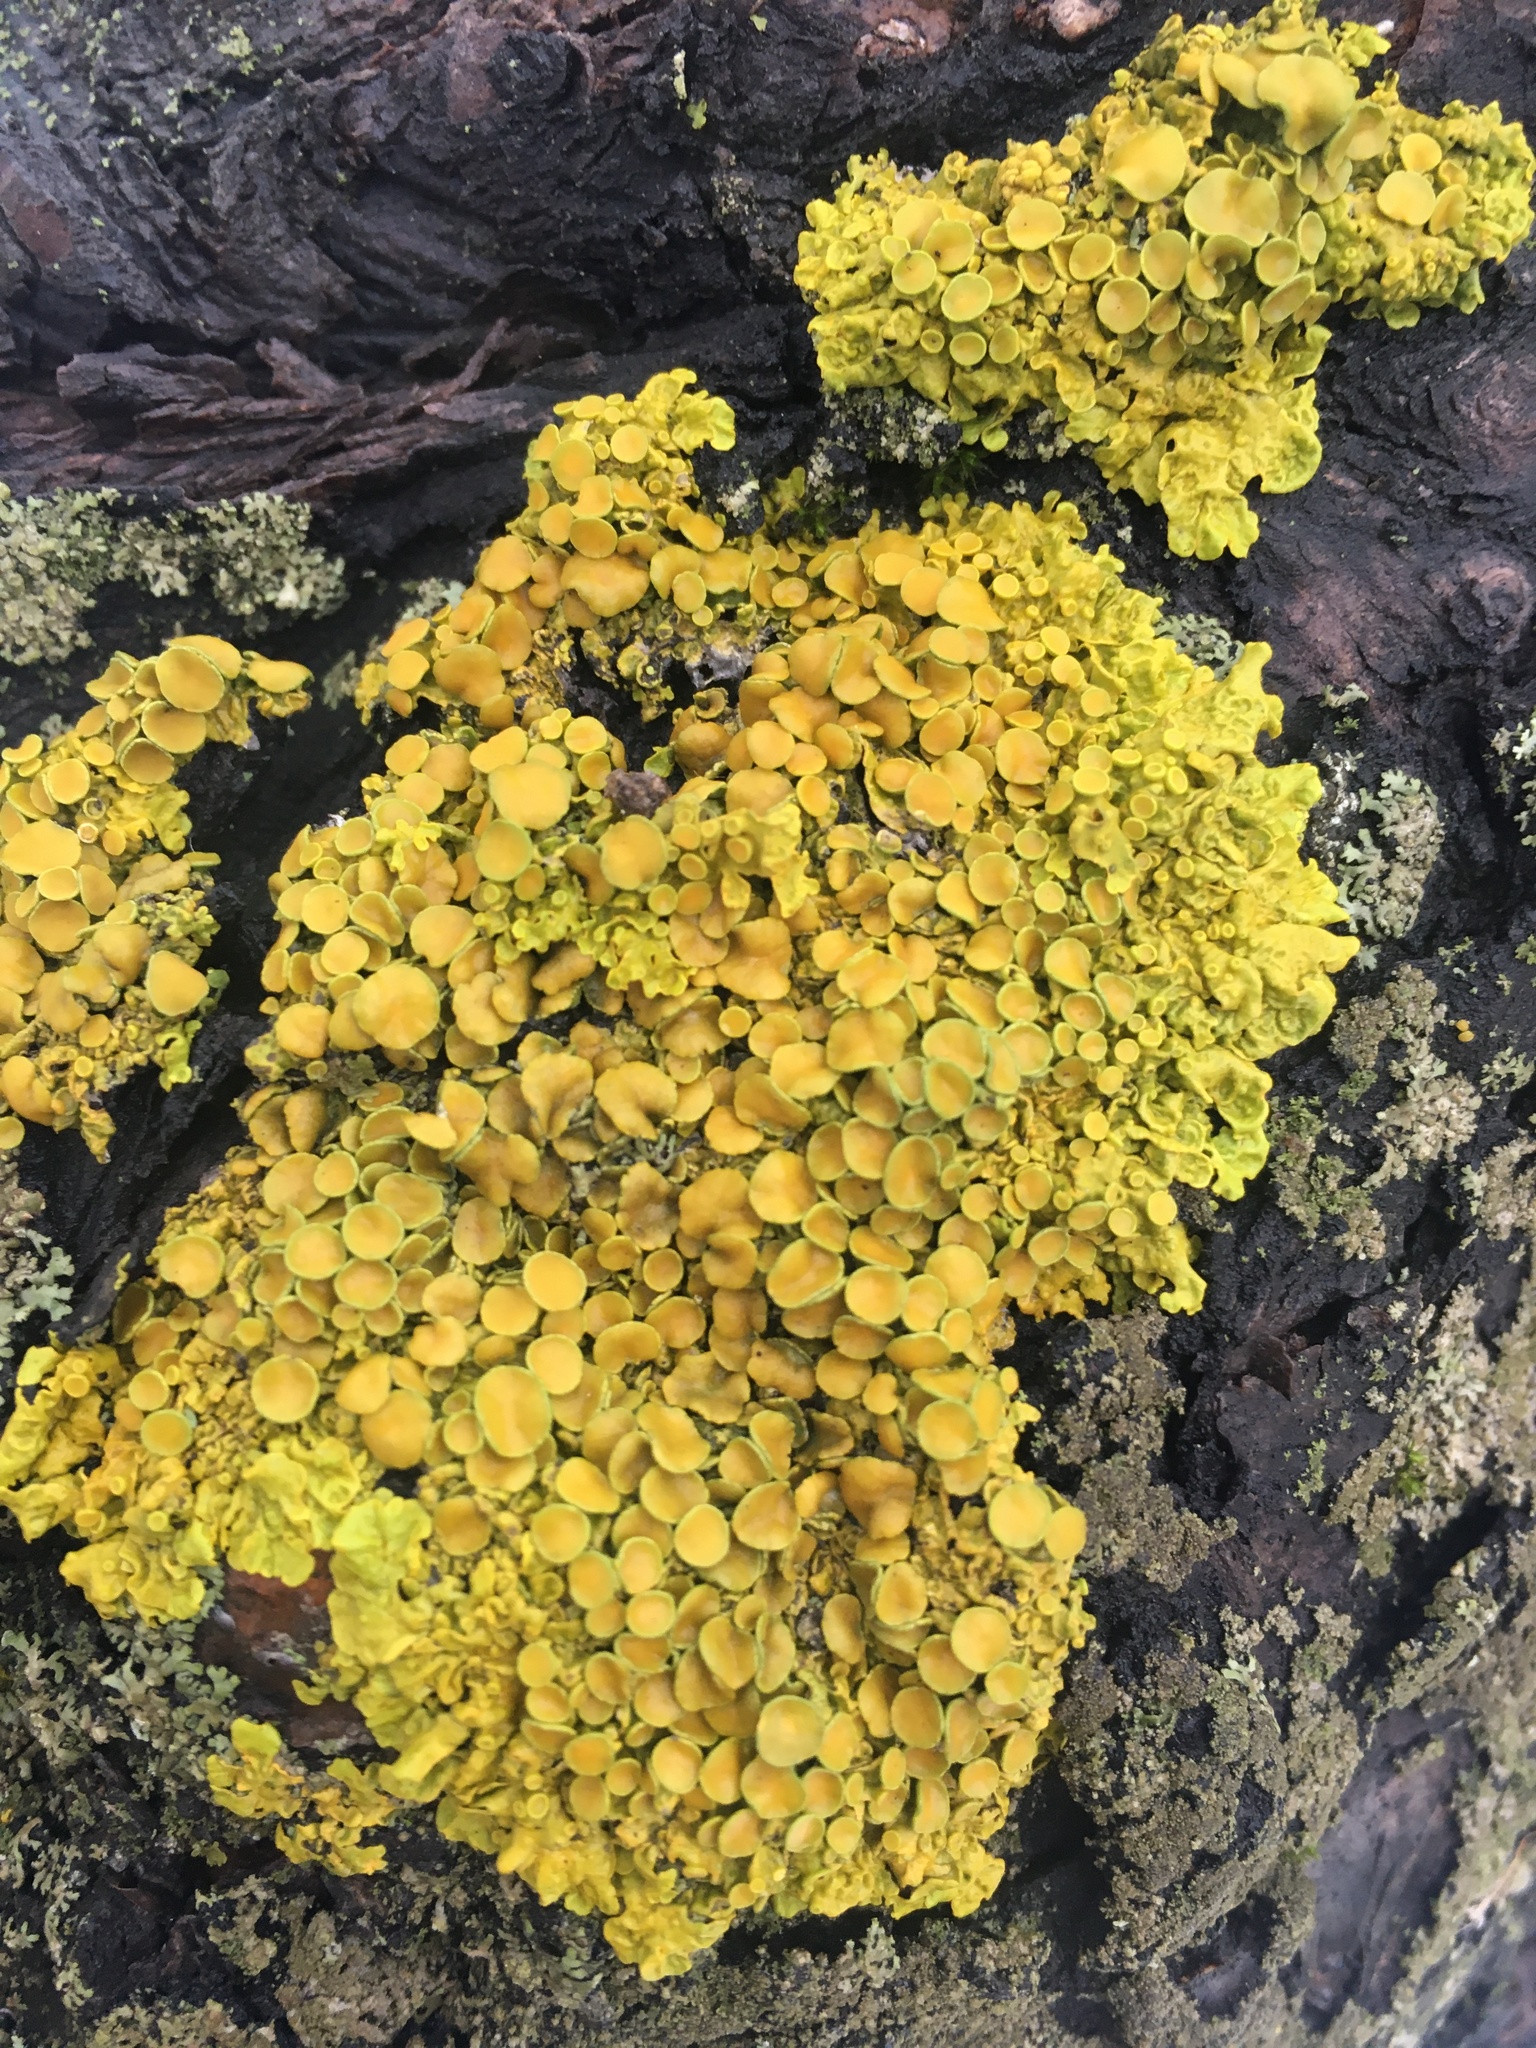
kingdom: Fungi
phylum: Ascomycota
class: Lecanoromycetes
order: Teloschistales
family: Teloschistaceae
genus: Xanthoria
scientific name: Xanthoria parietina
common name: Common orange lichen
